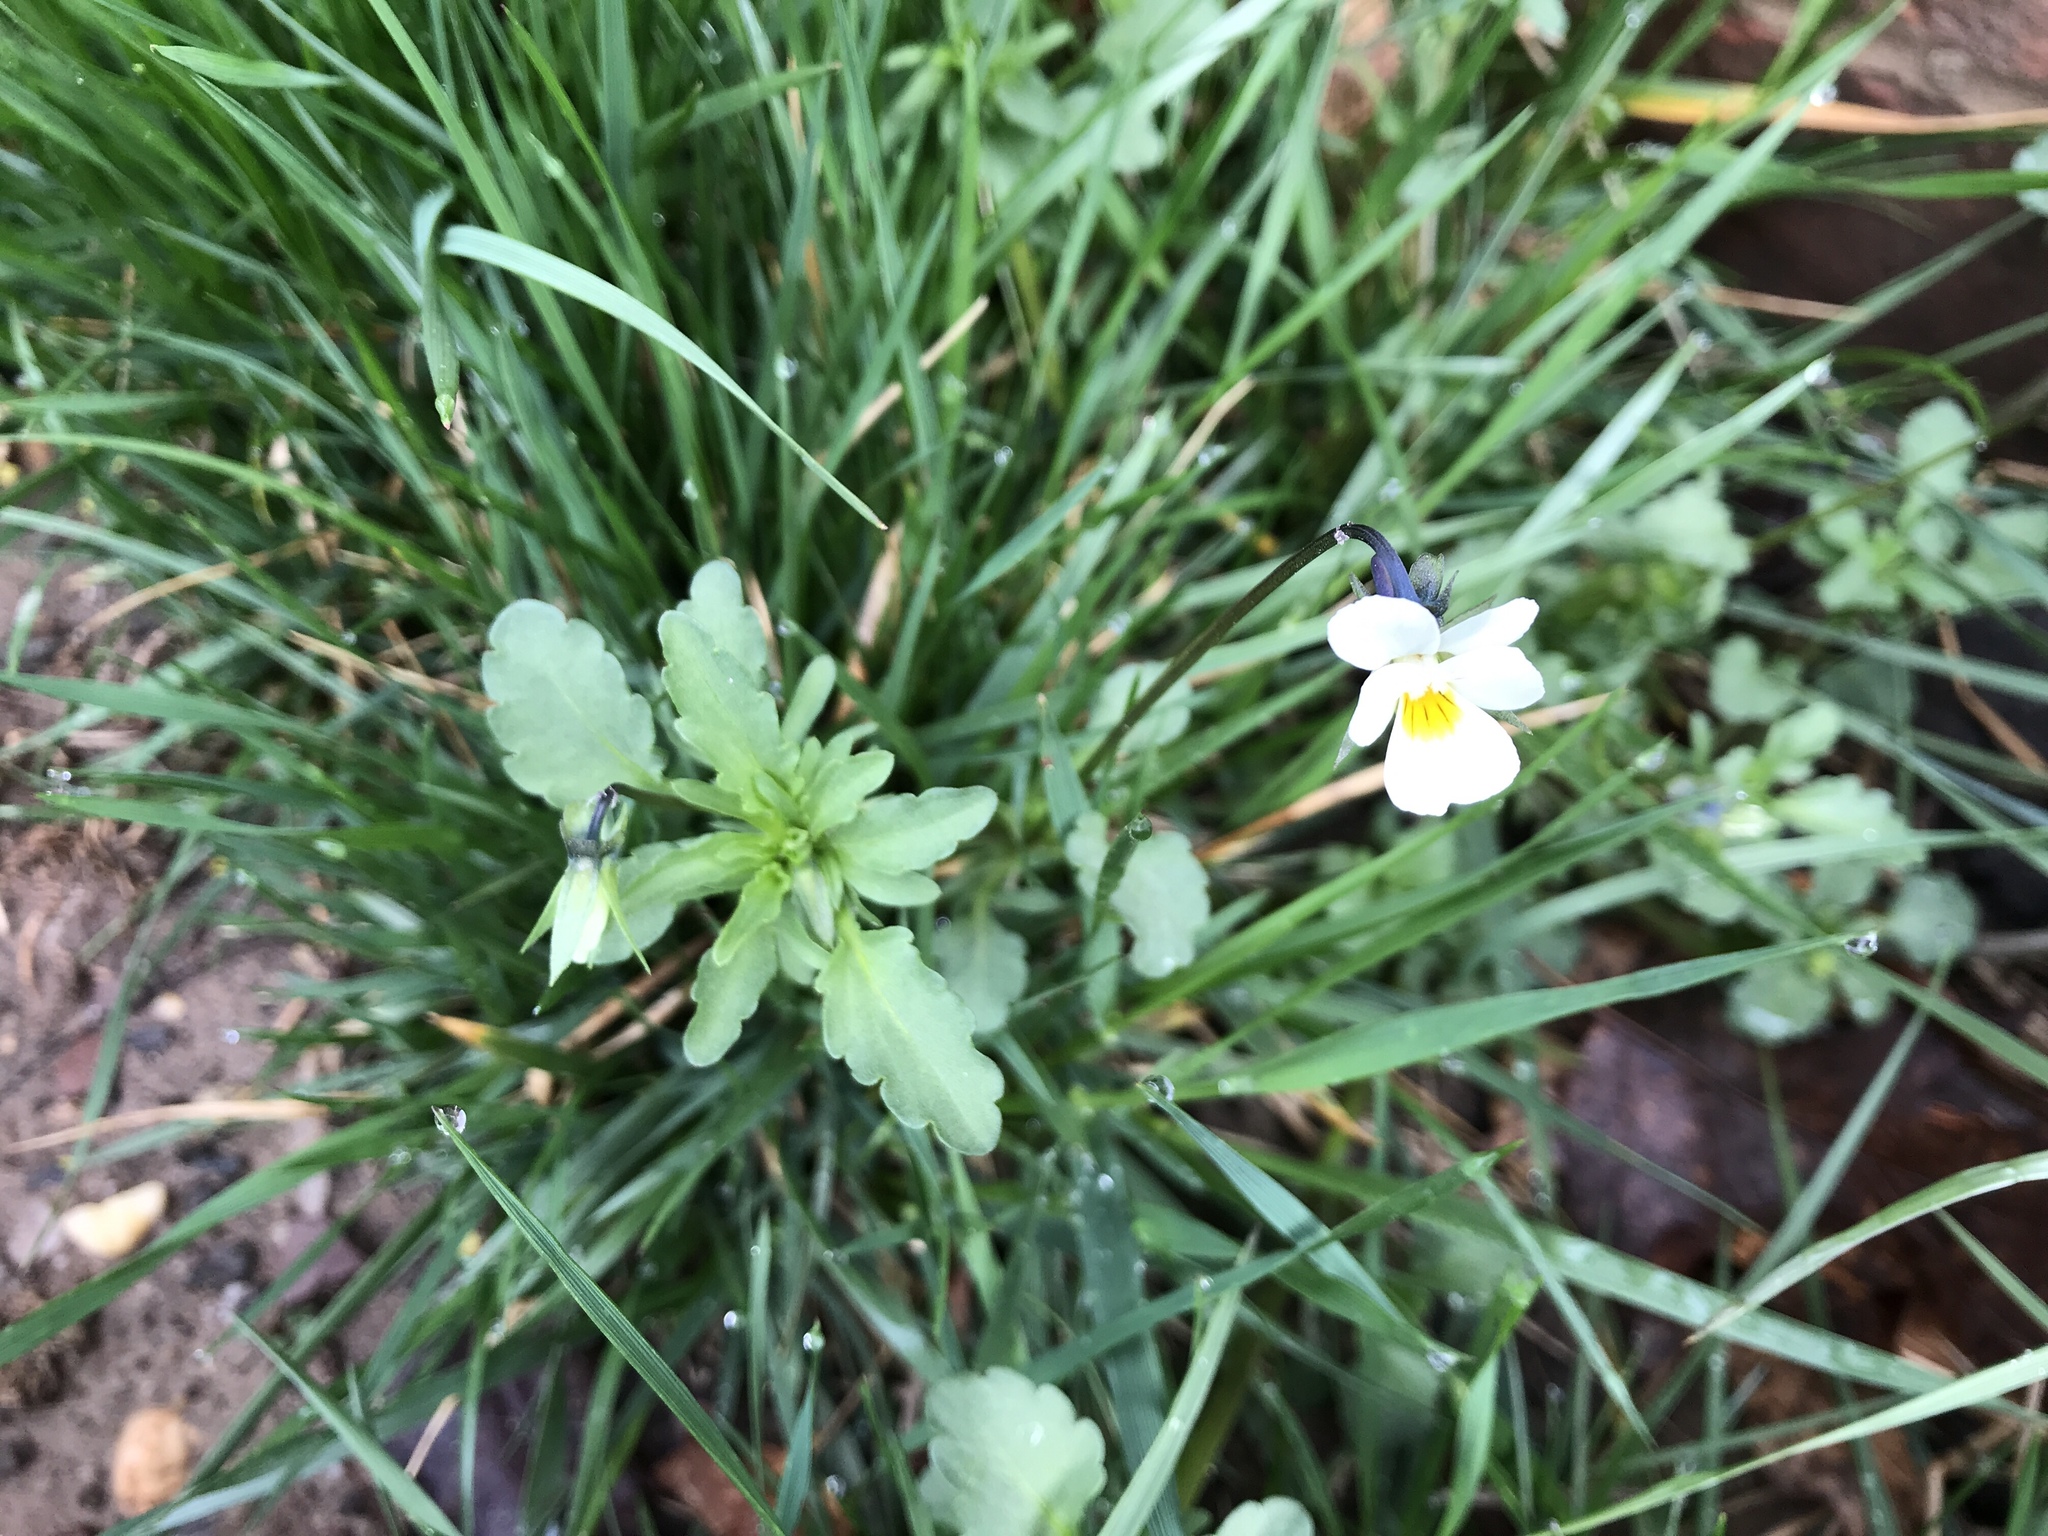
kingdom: Plantae
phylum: Tracheophyta
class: Magnoliopsida
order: Malpighiales
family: Violaceae
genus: Viola
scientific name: Viola arvensis
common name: Field pansy
